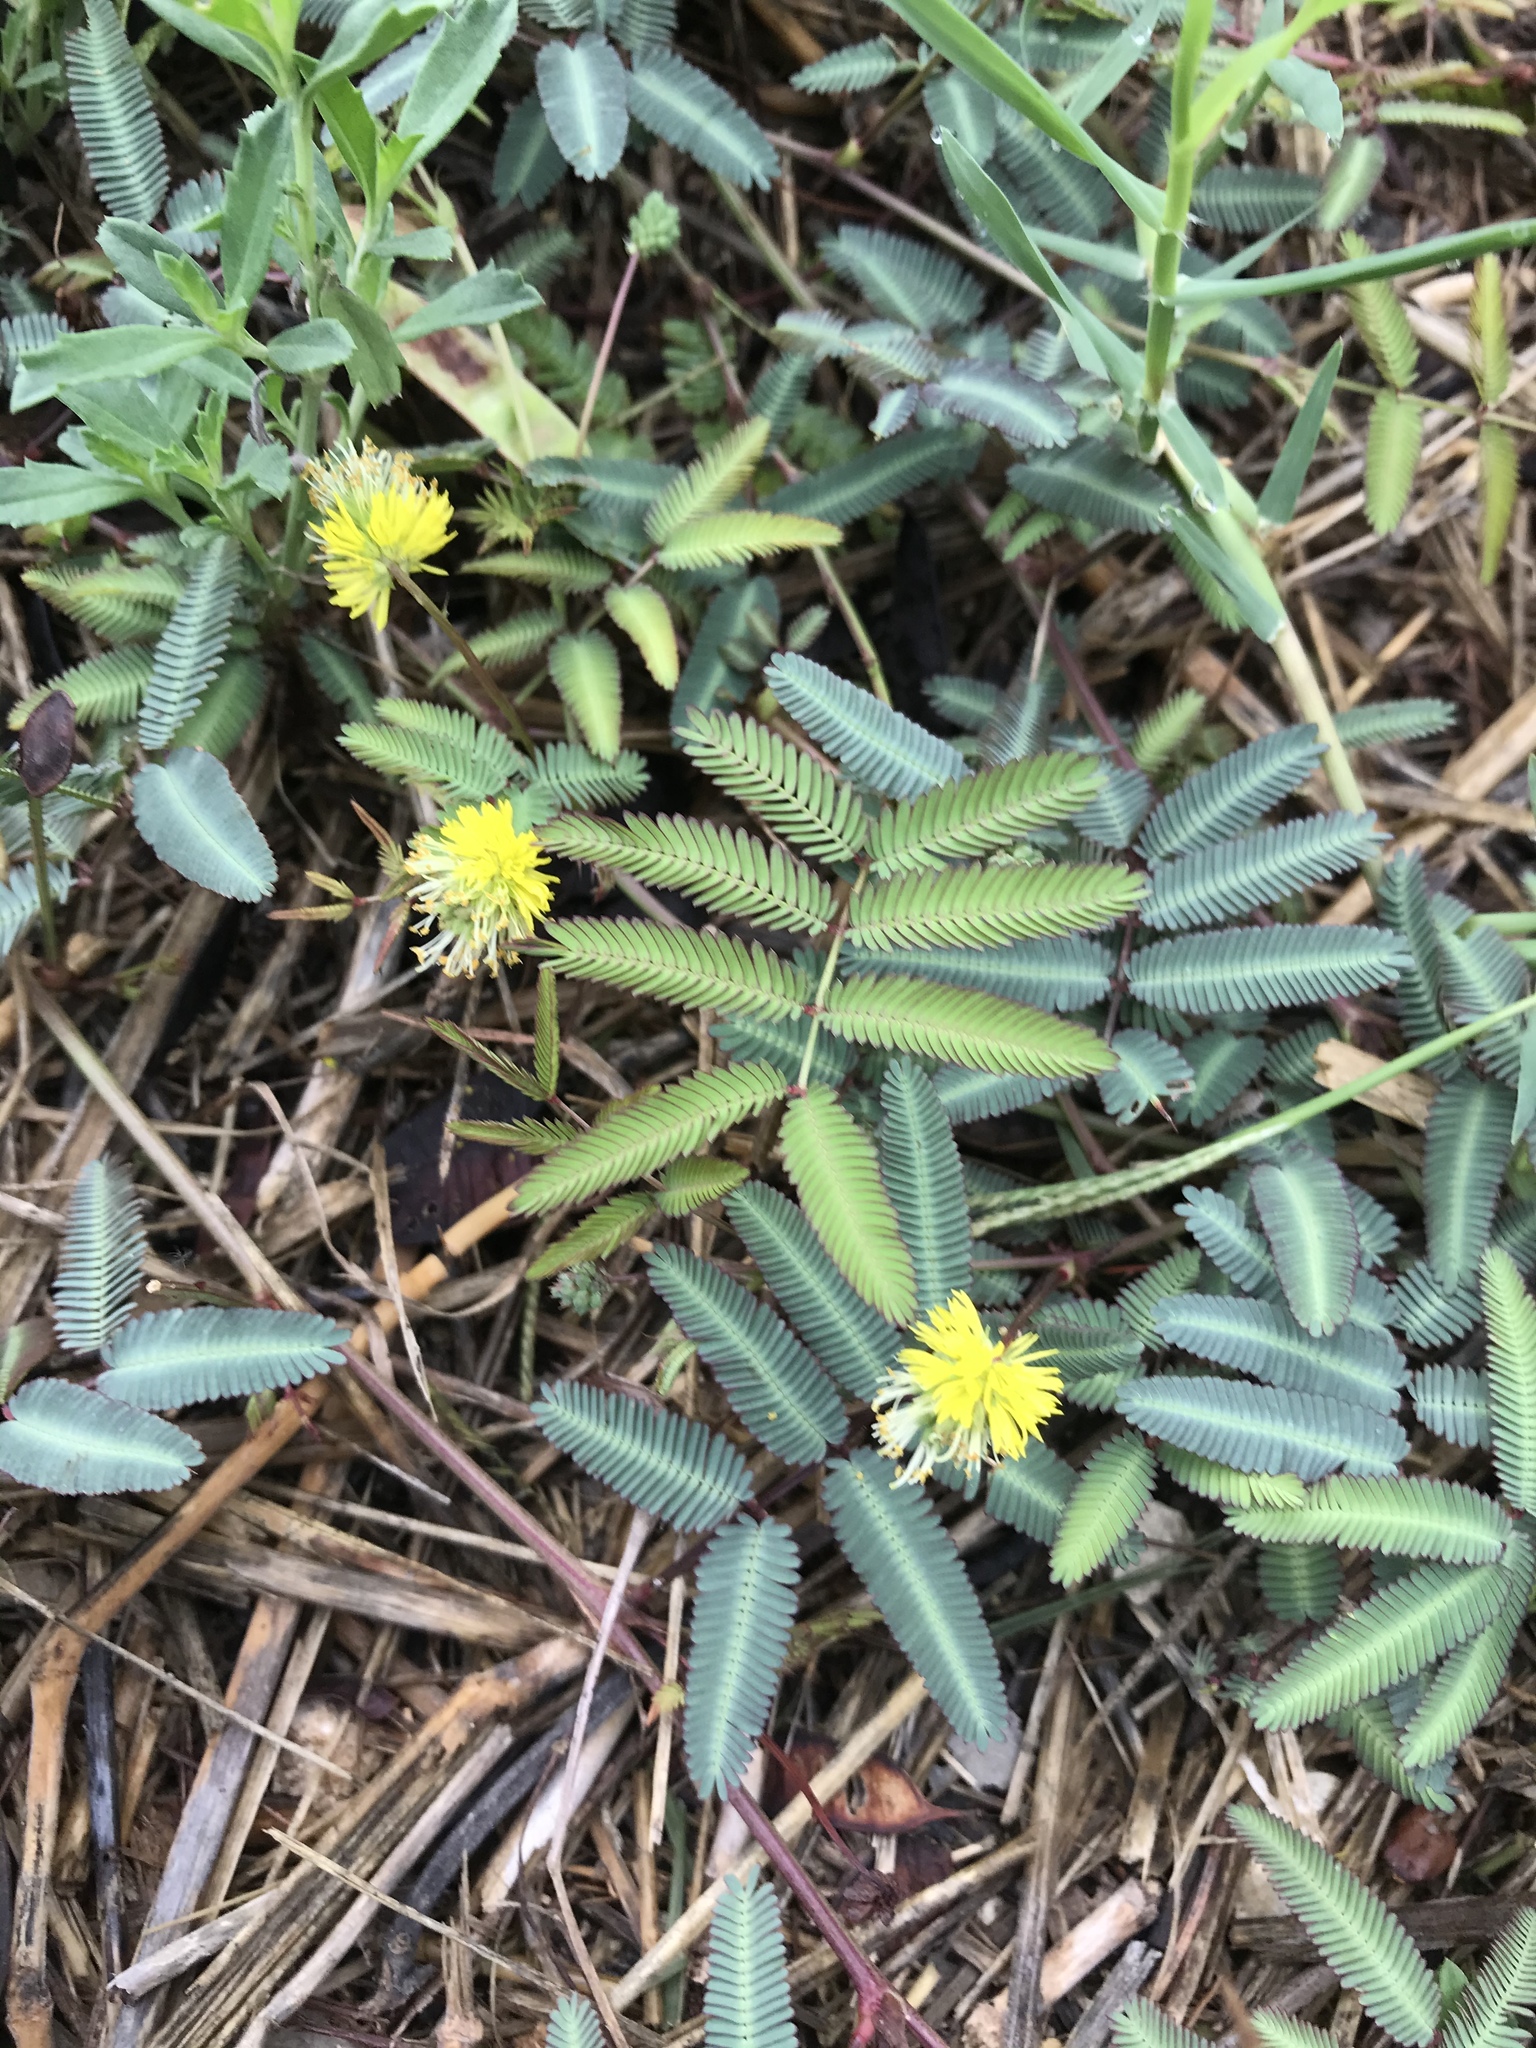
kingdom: Plantae
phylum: Tracheophyta
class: Magnoliopsida
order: Fabales
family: Fabaceae
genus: Neptunia
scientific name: Neptunia pubescens
